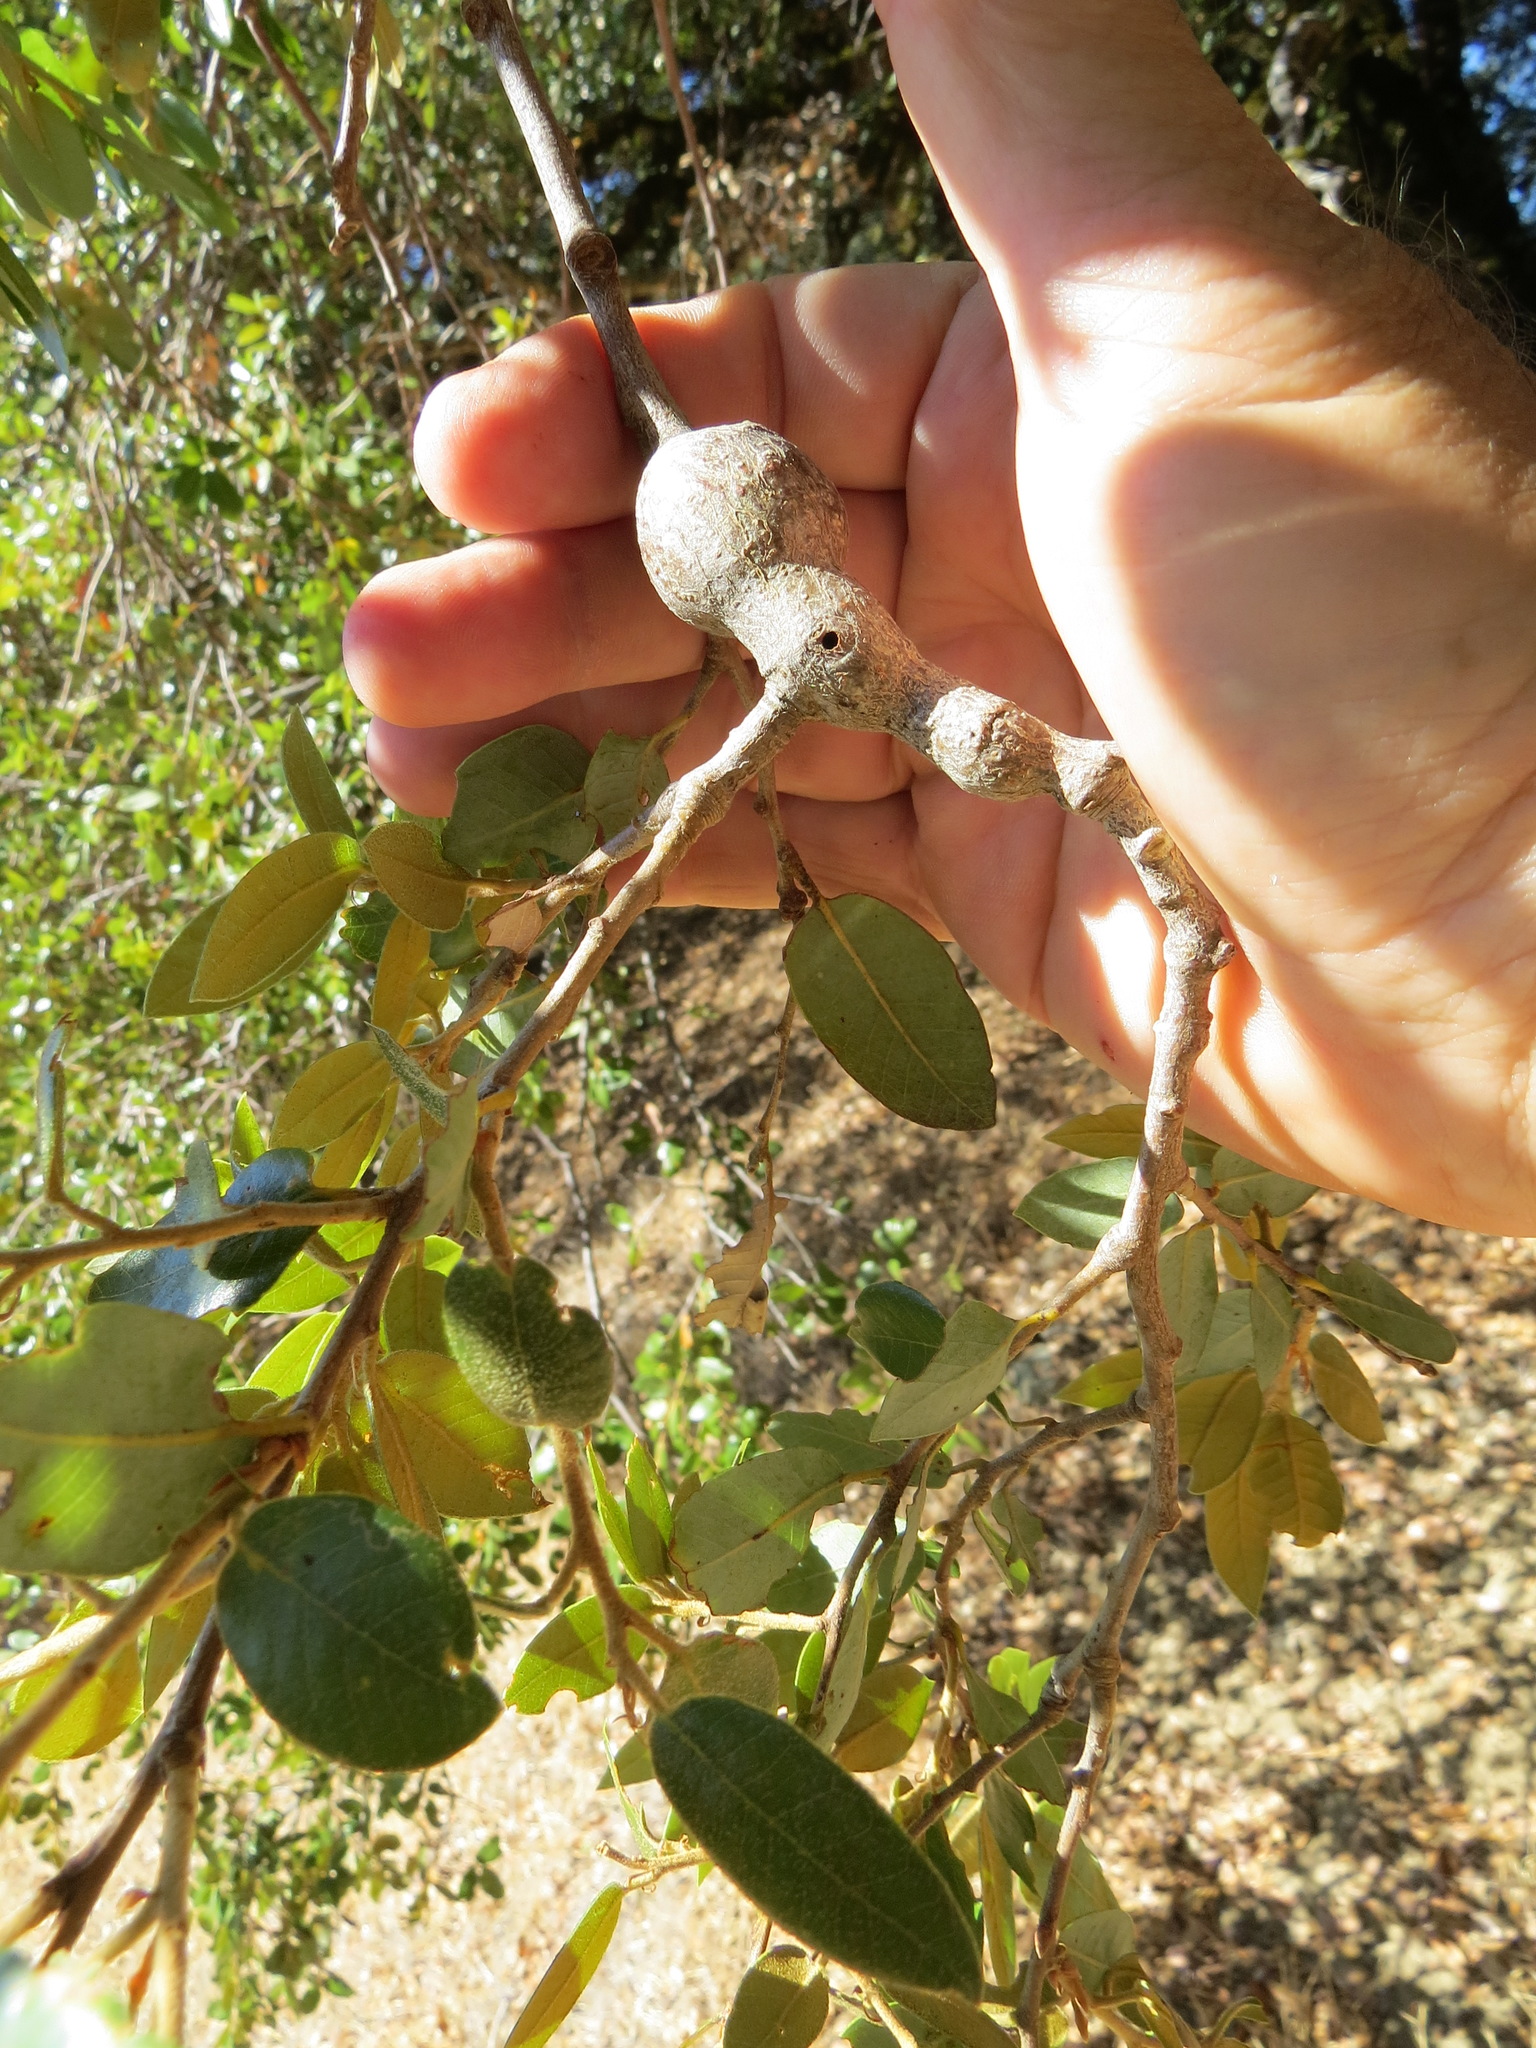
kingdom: Animalia
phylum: Arthropoda
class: Insecta
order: Hymenoptera
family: Cynipidae
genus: Disholcaspis
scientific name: Disholcaspis spectabilis
